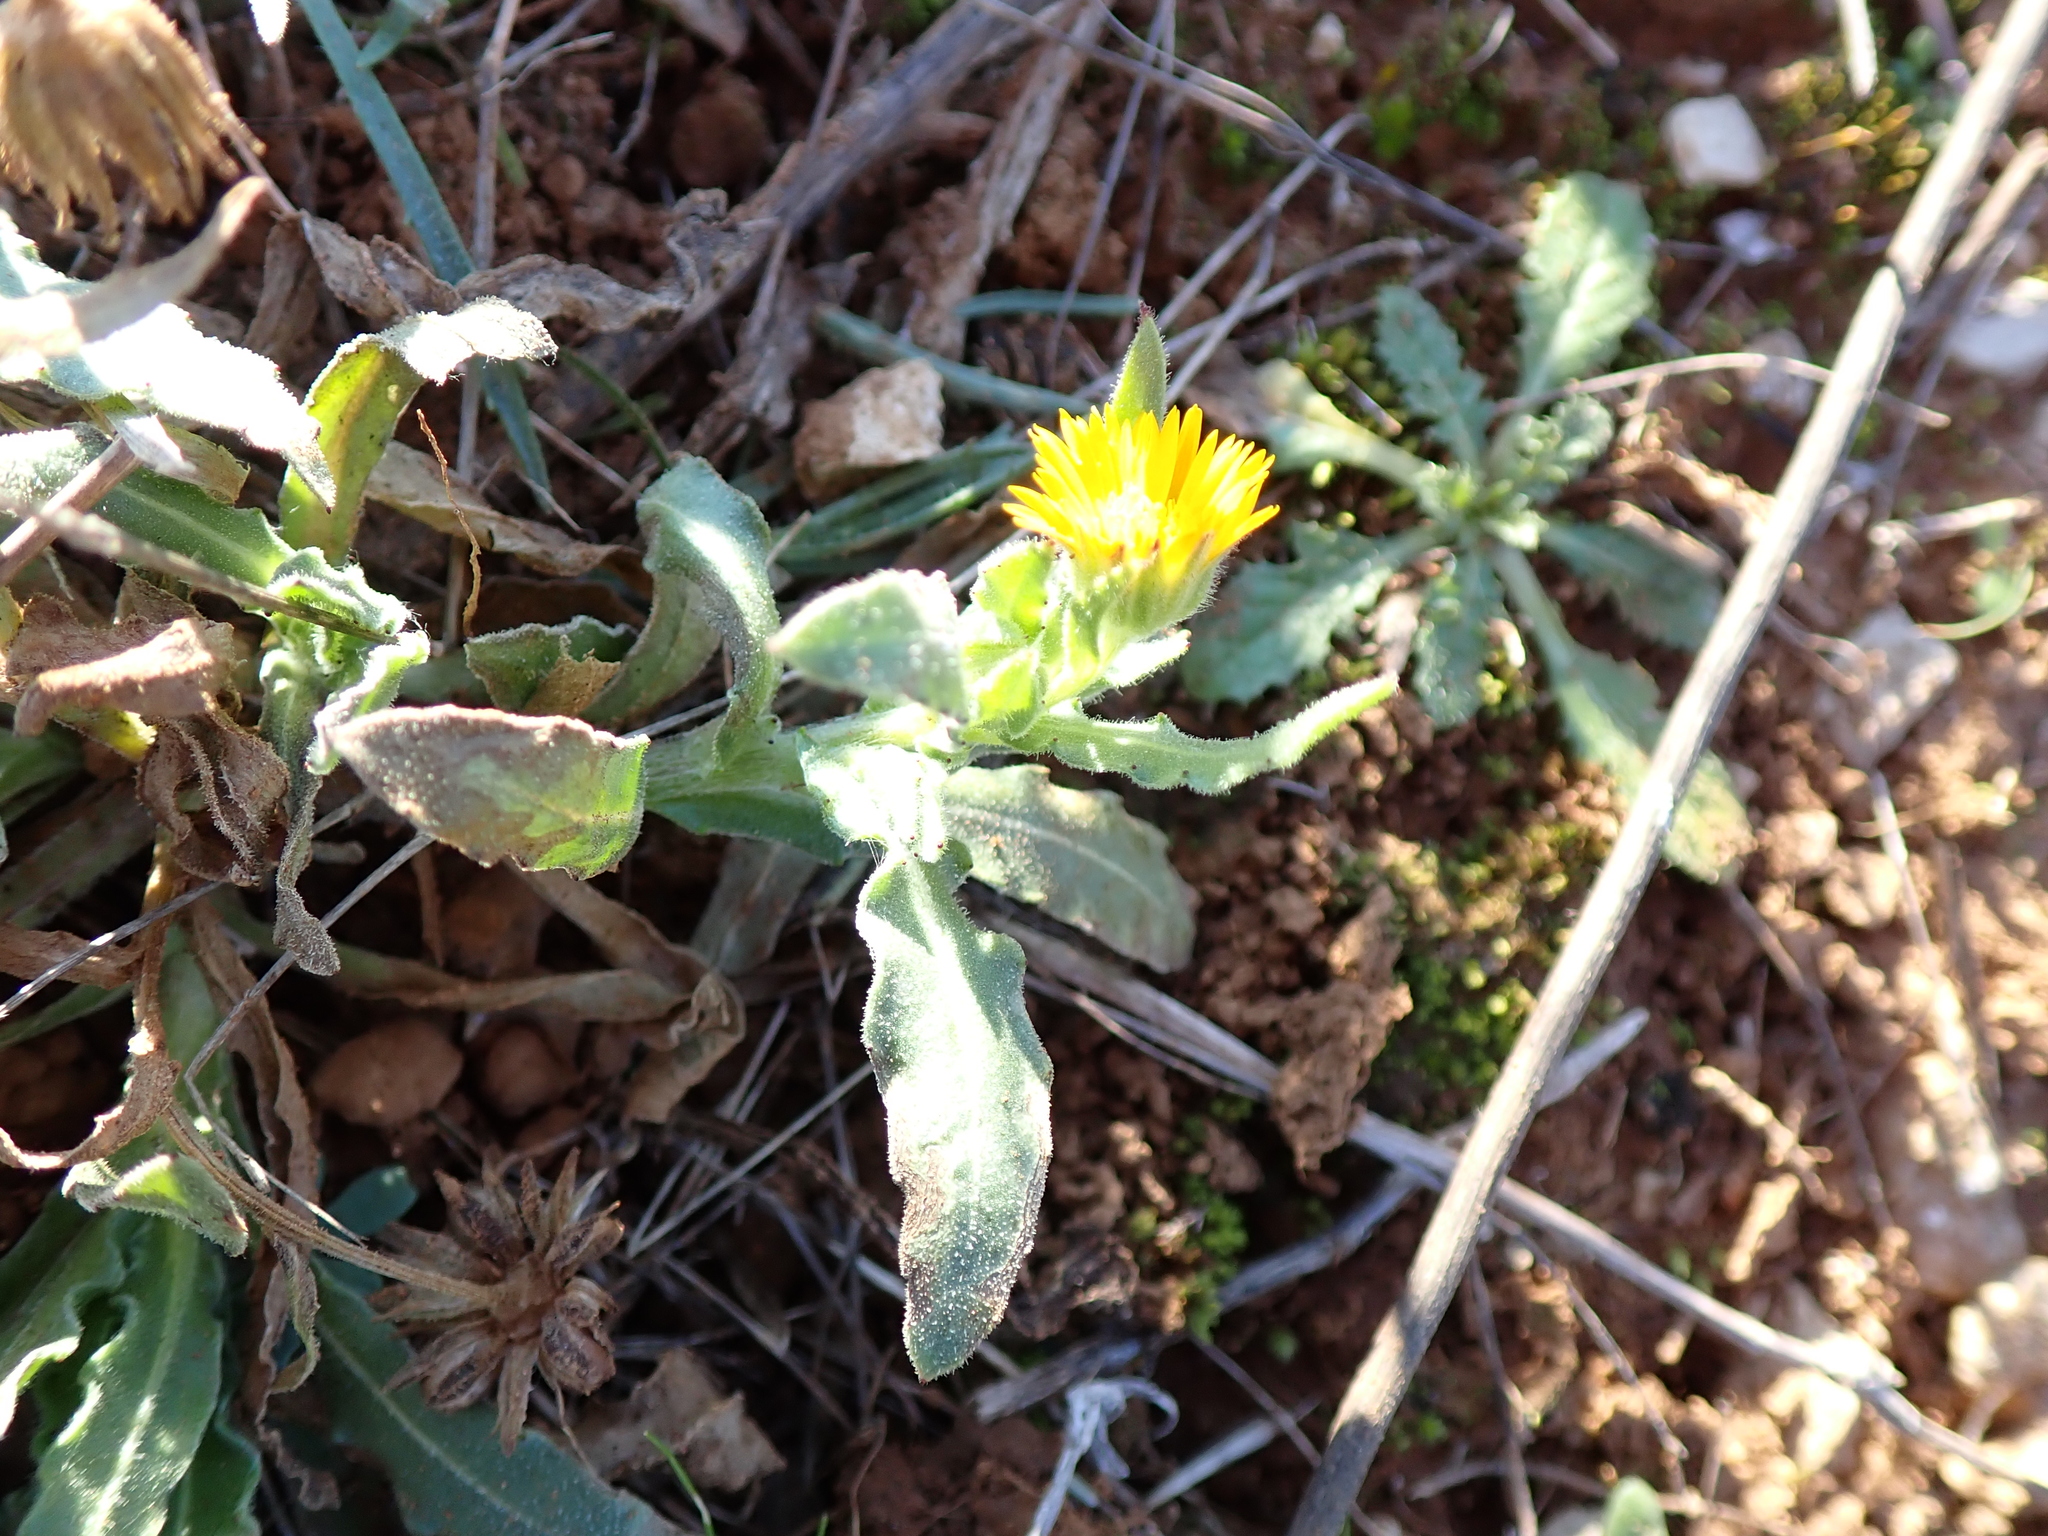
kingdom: Plantae
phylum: Tracheophyta
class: Magnoliopsida
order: Asterales
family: Asteraceae
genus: Calendula
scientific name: Calendula arvensis
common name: Field marigold
